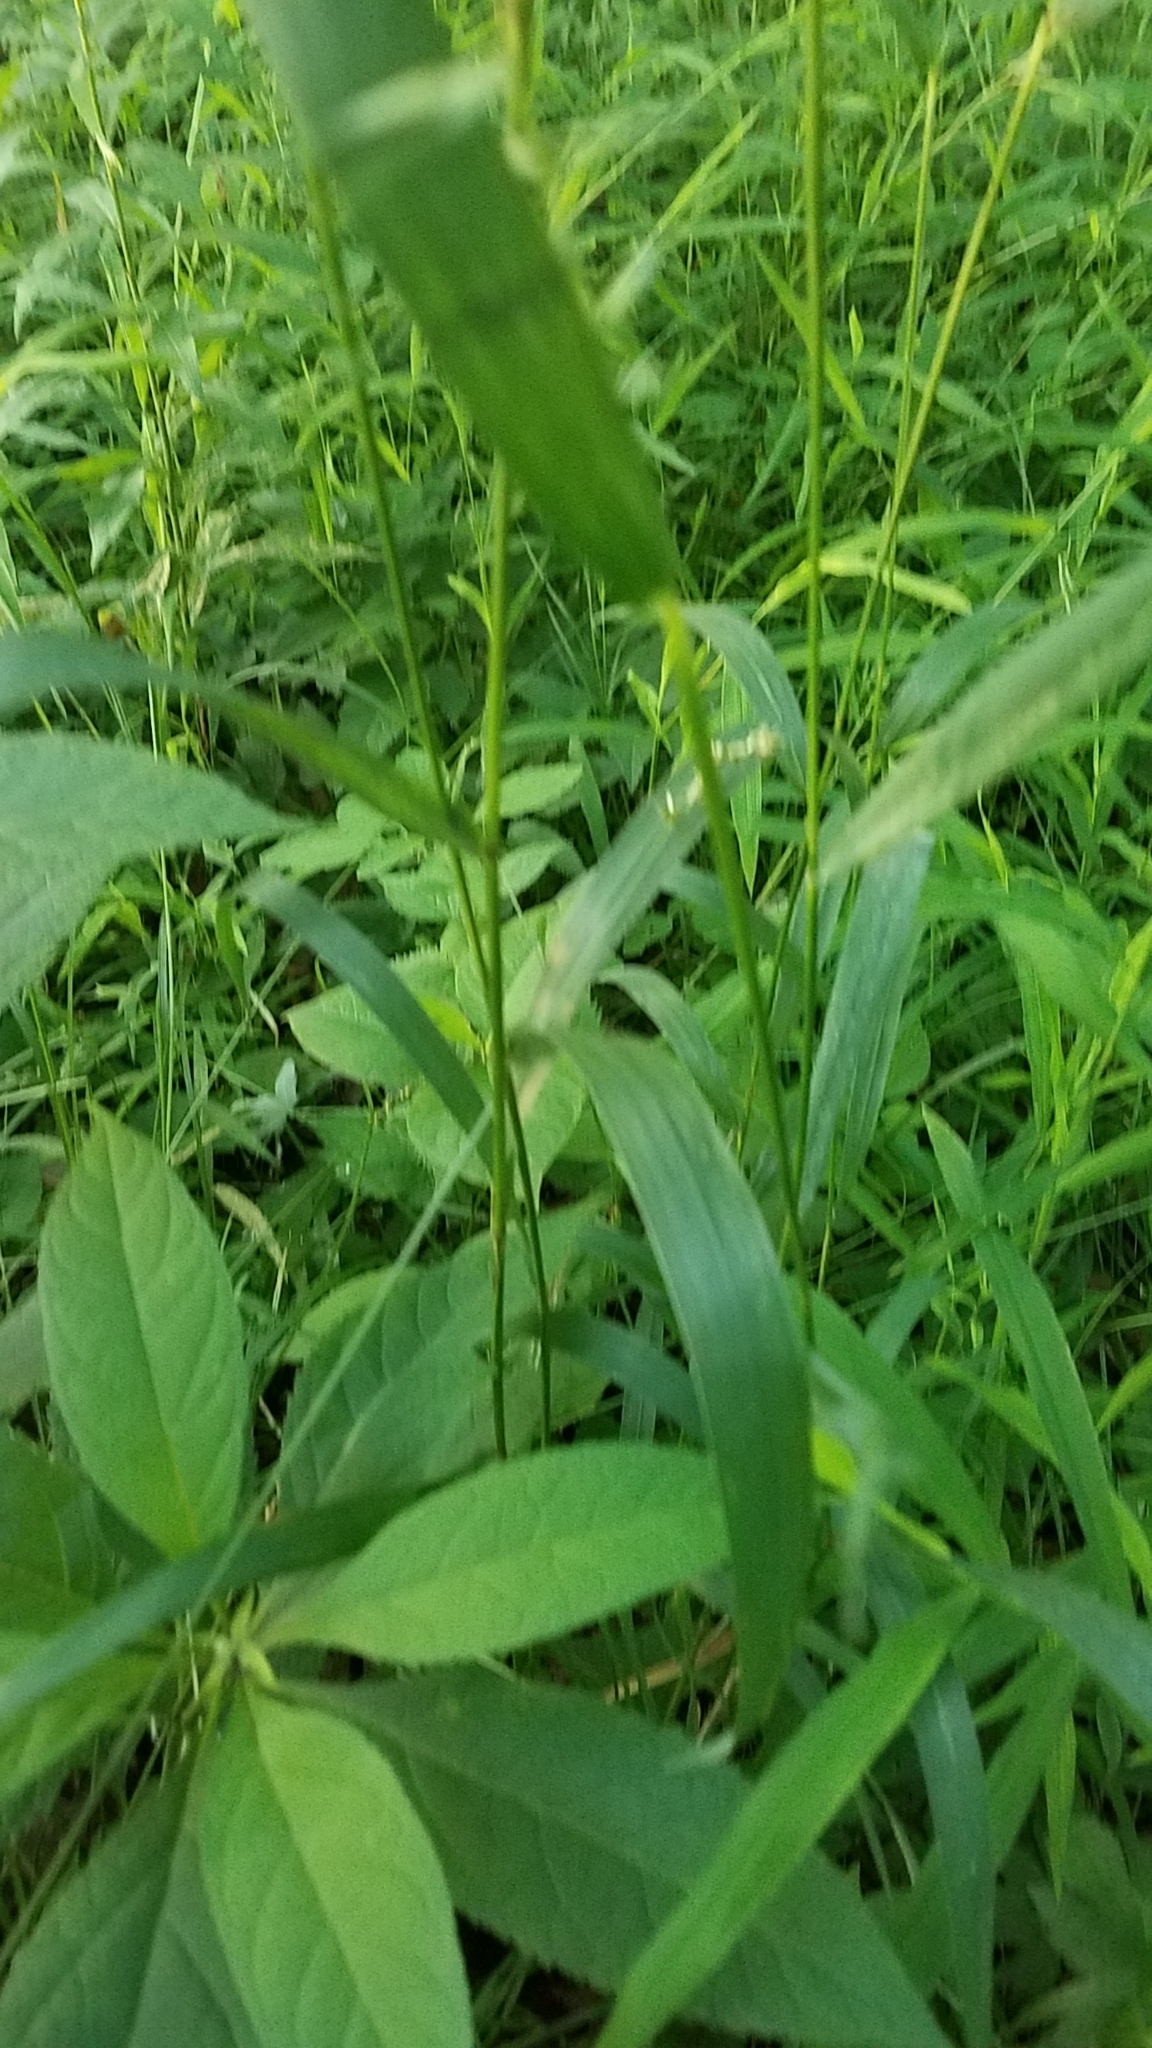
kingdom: Plantae
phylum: Tracheophyta
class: Liliopsida
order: Poales
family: Poaceae
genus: Elymus
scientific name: Elymus hystrix
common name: Bottlebrush grass
